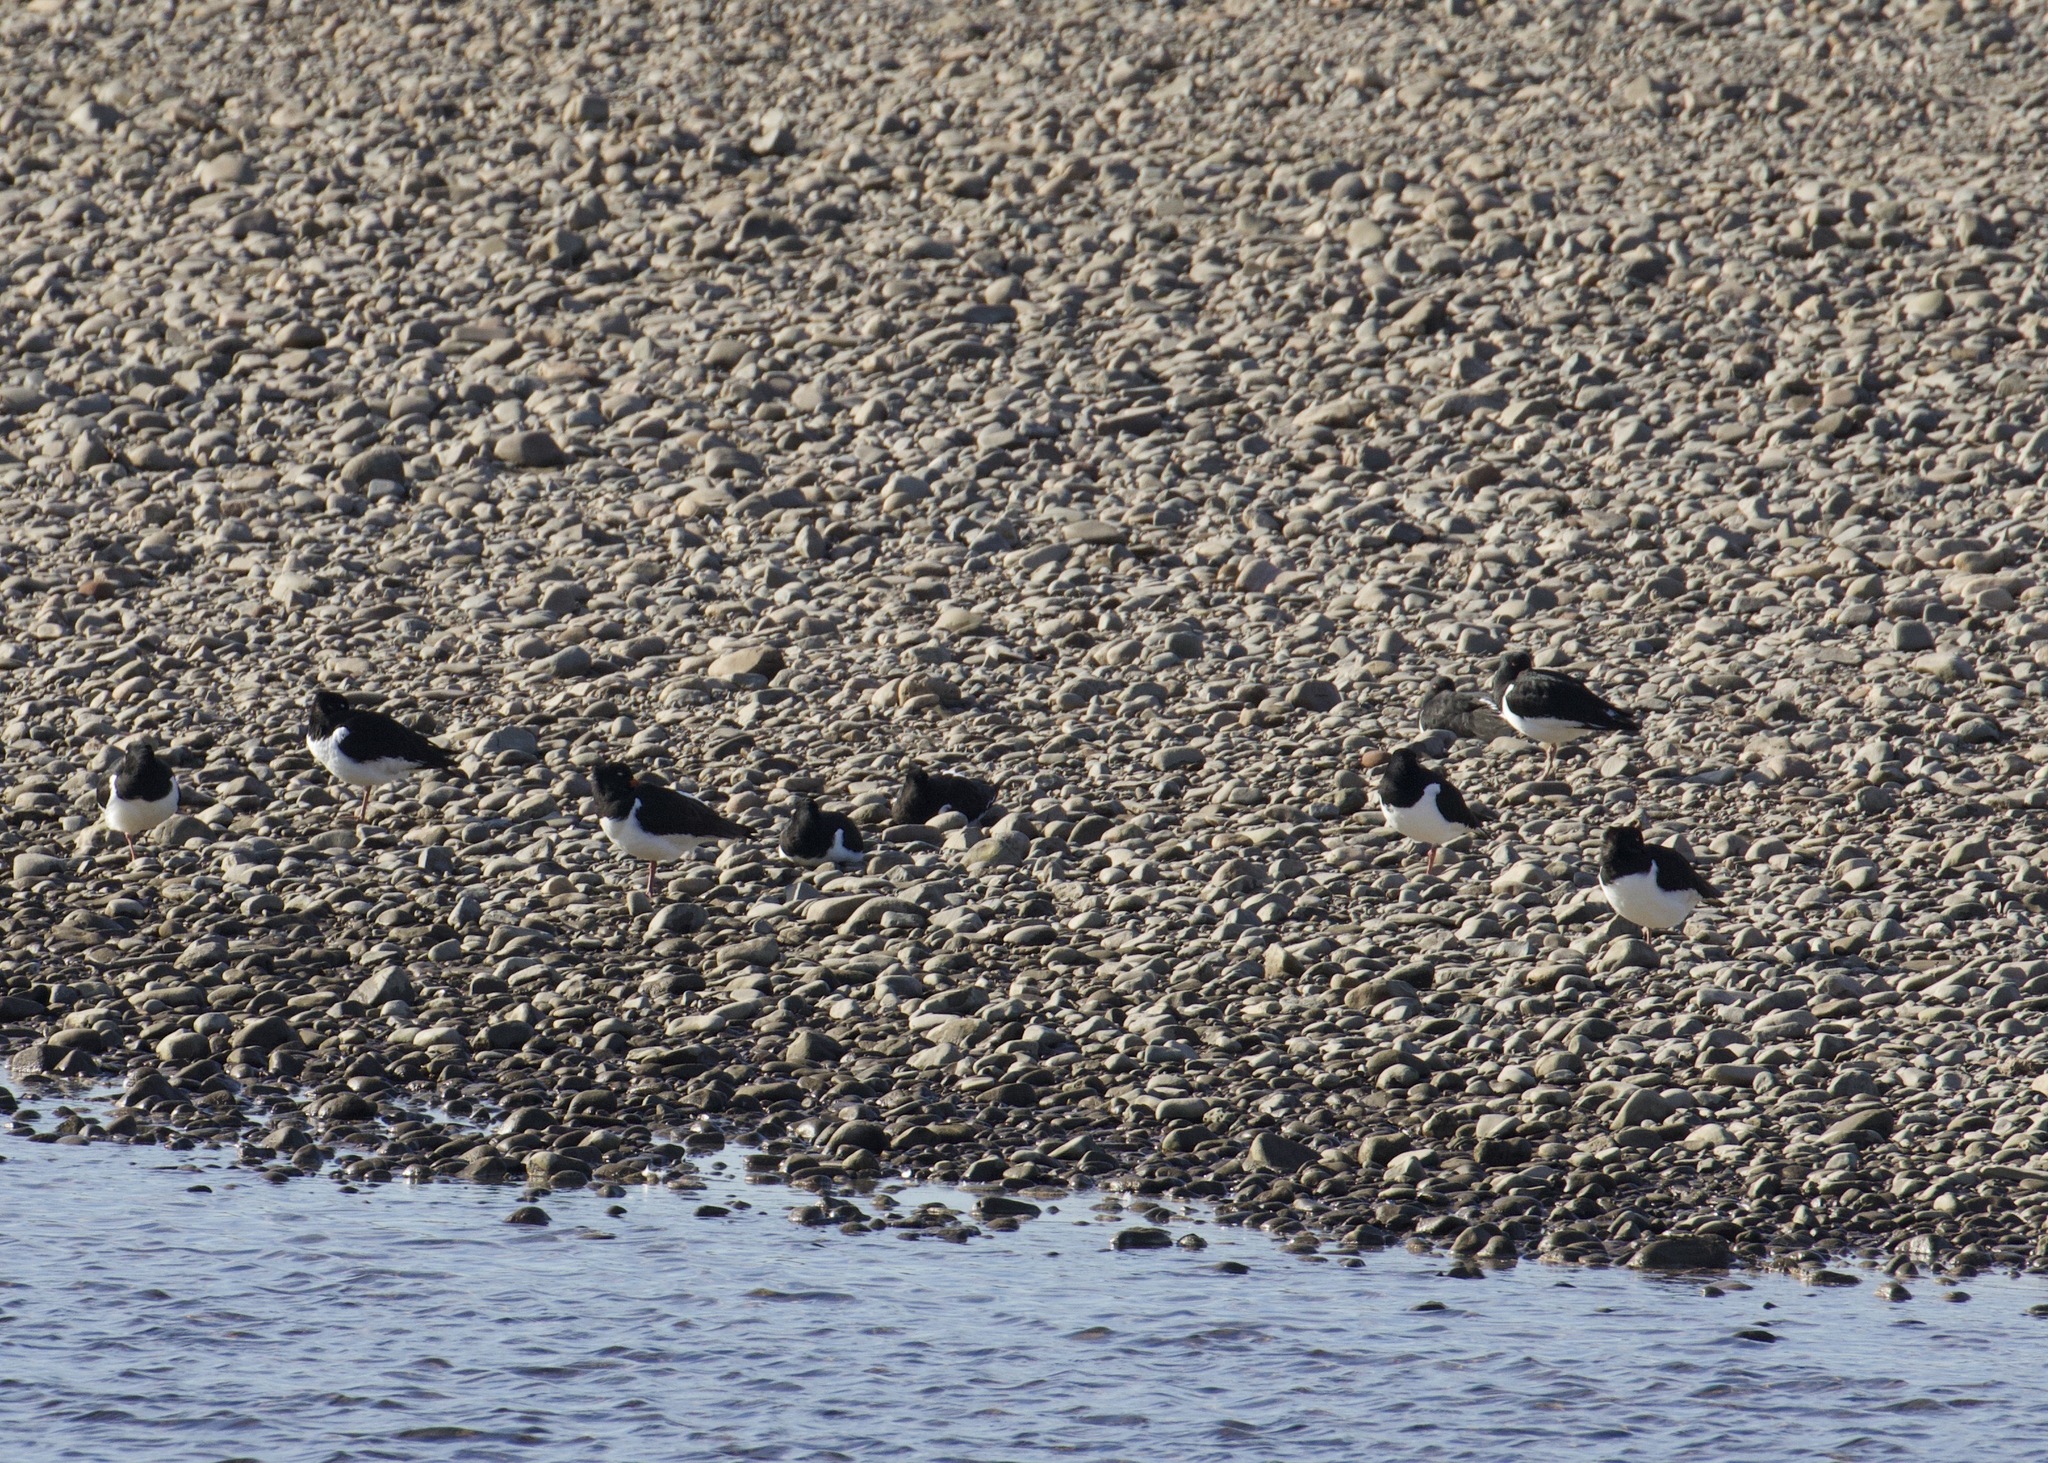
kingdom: Animalia
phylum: Chordata
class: Aves
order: Charadriiformes
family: Haematopodidae
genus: Haematopus
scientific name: Haematopus ostralegus
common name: Eurasian oystercatcher
